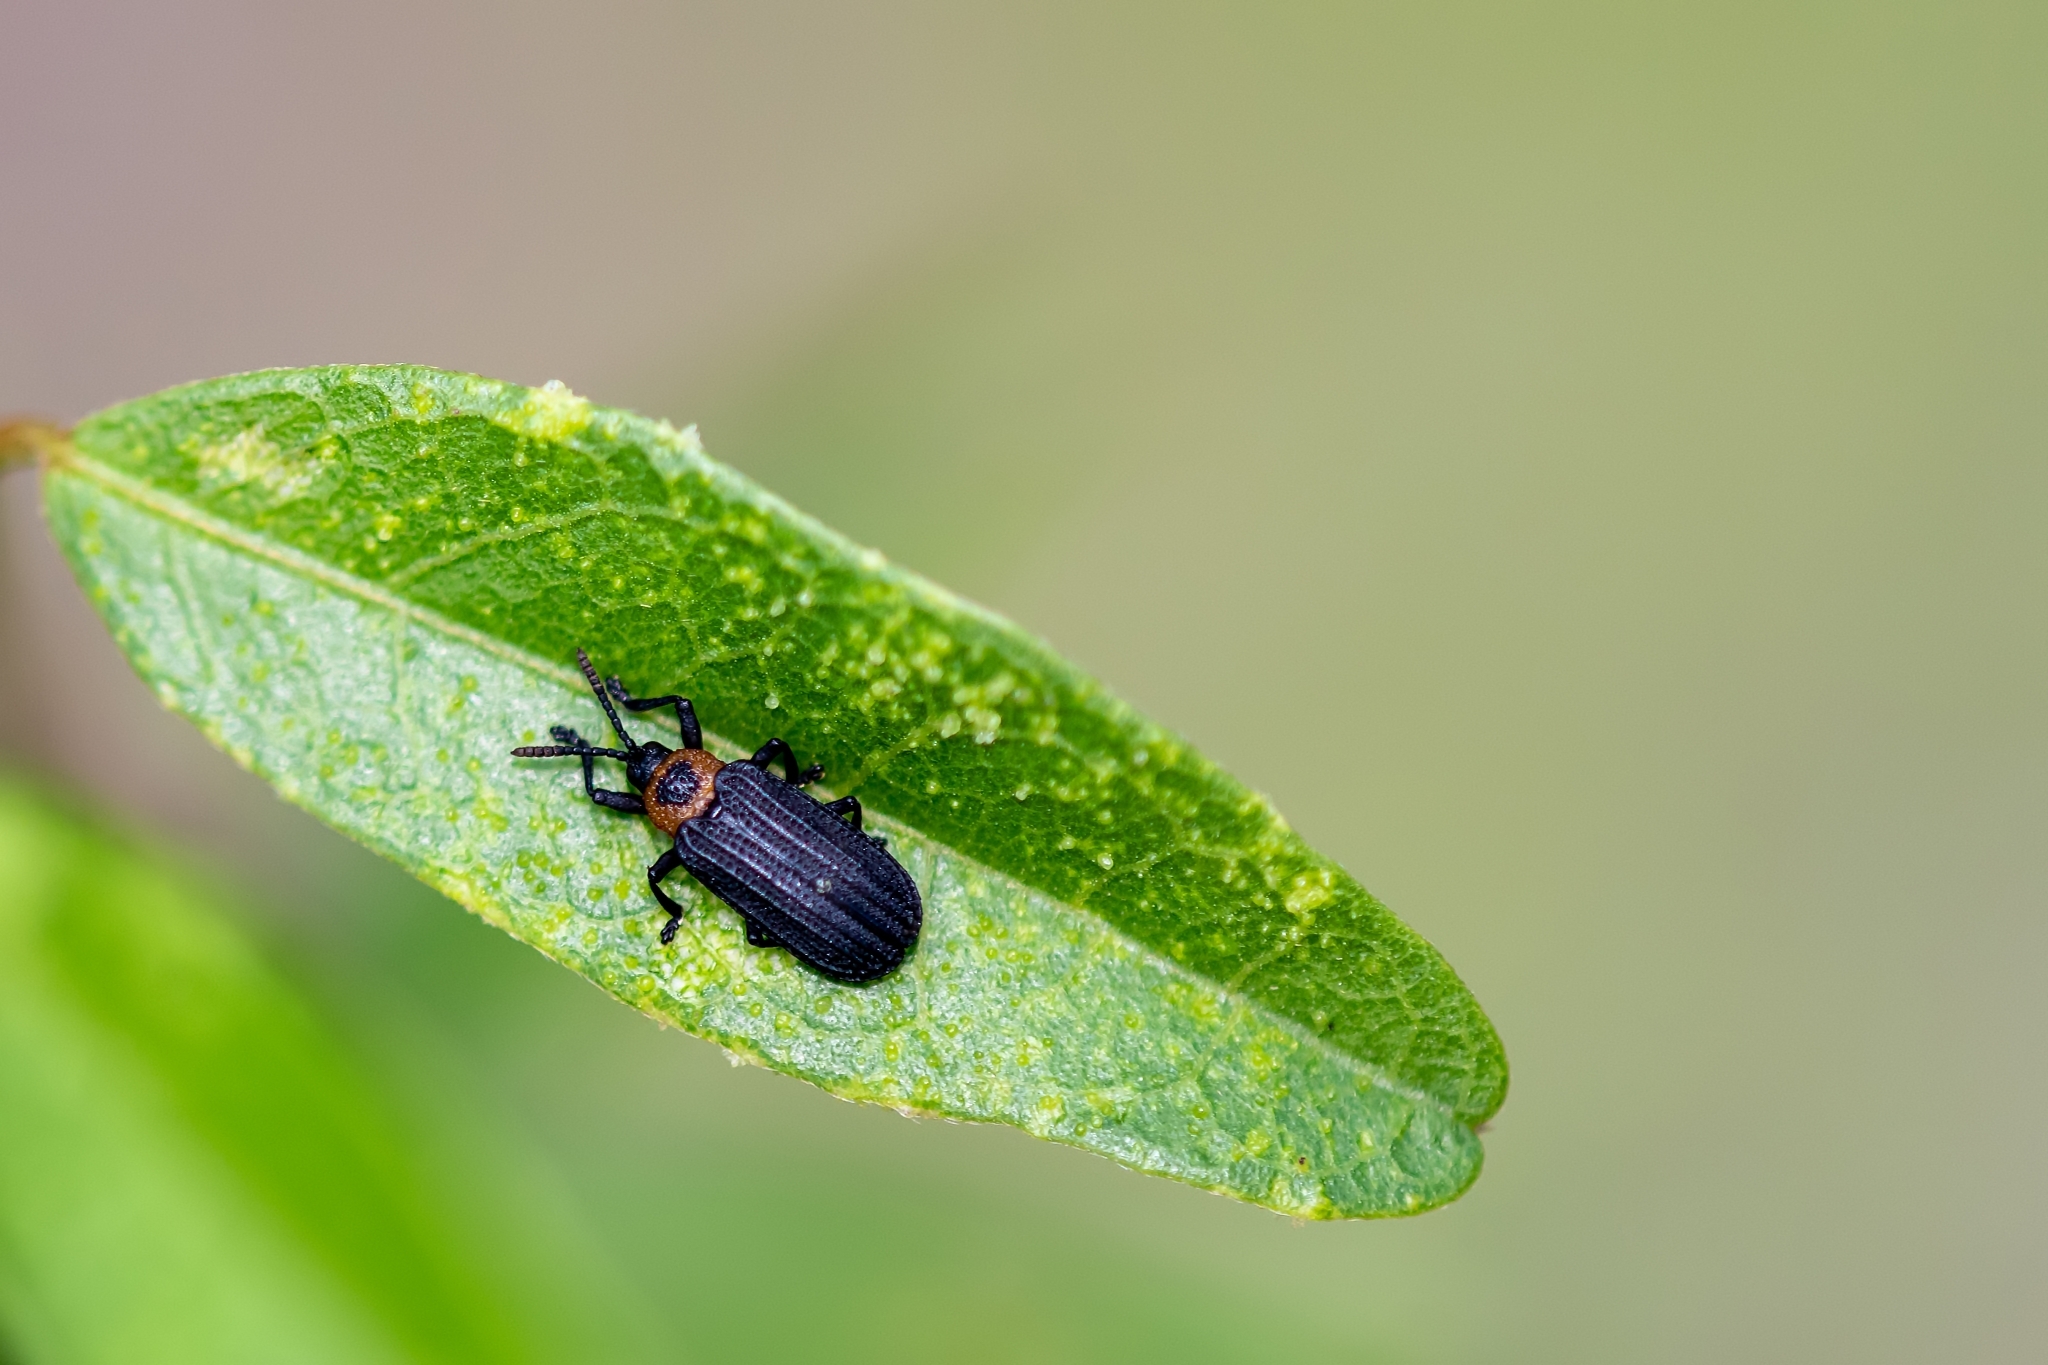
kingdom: Animalia
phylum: Arthropoda
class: Insecta
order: Coleoptera
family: Chrysomelidae
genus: Odontota
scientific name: Odontota notata
